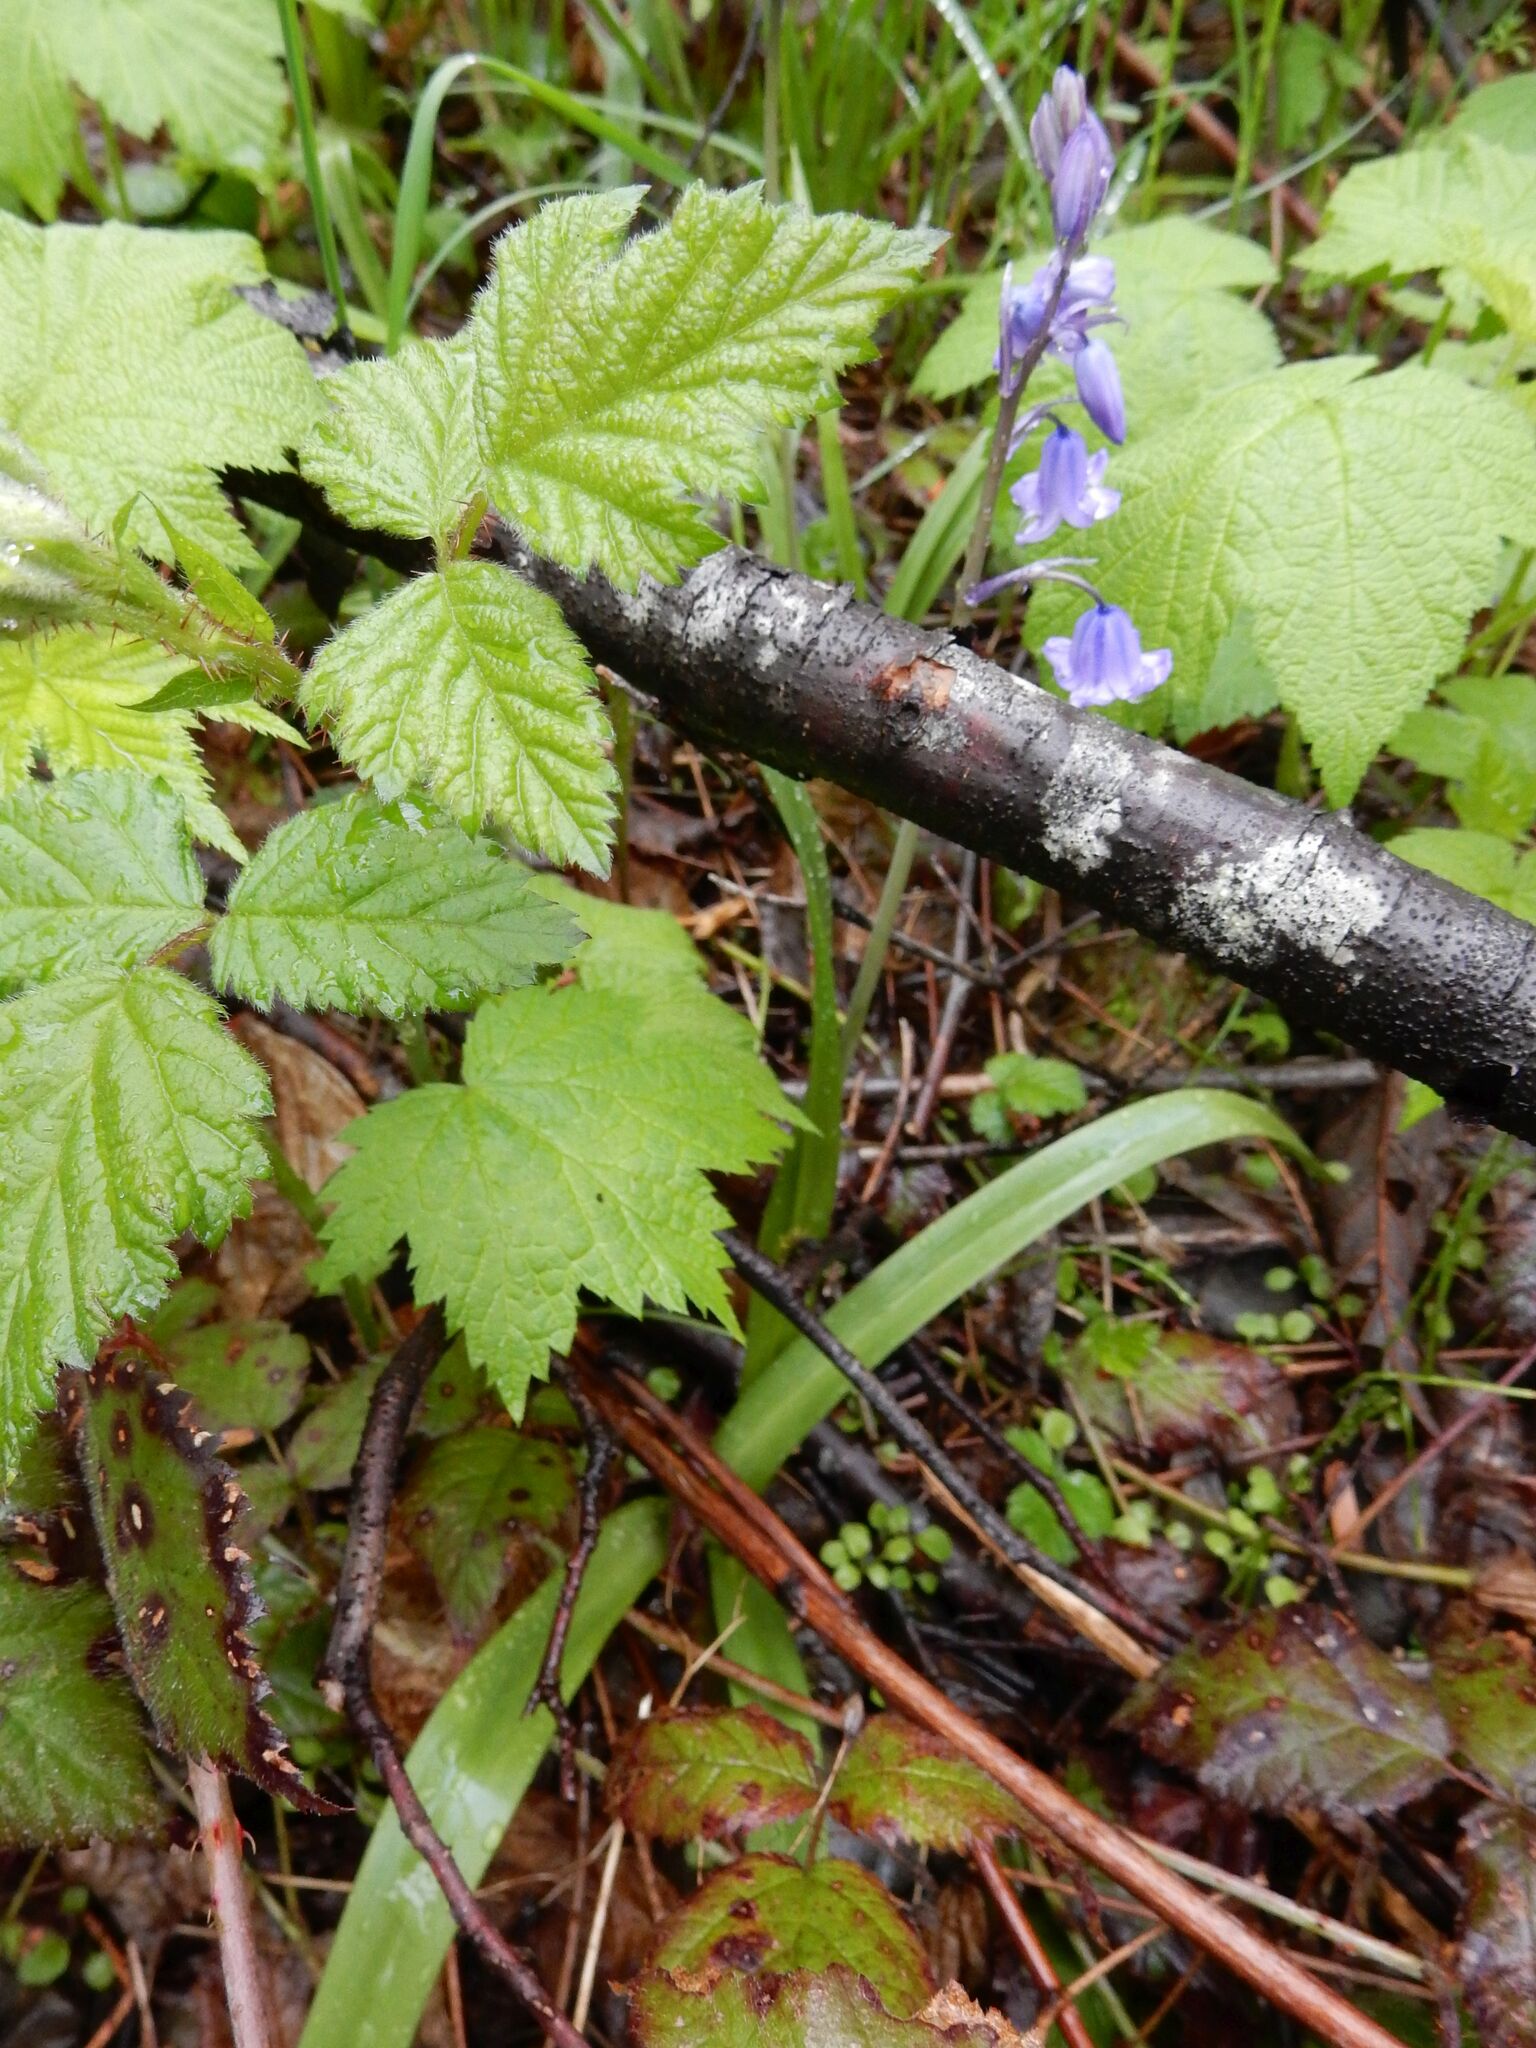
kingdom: Plantae
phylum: Tracheophyta
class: Liliopsida
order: Asparagales
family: Asparagaceae
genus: Hyacinthoides
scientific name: Hyacinthoides massartiana
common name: Hyacinthoides
